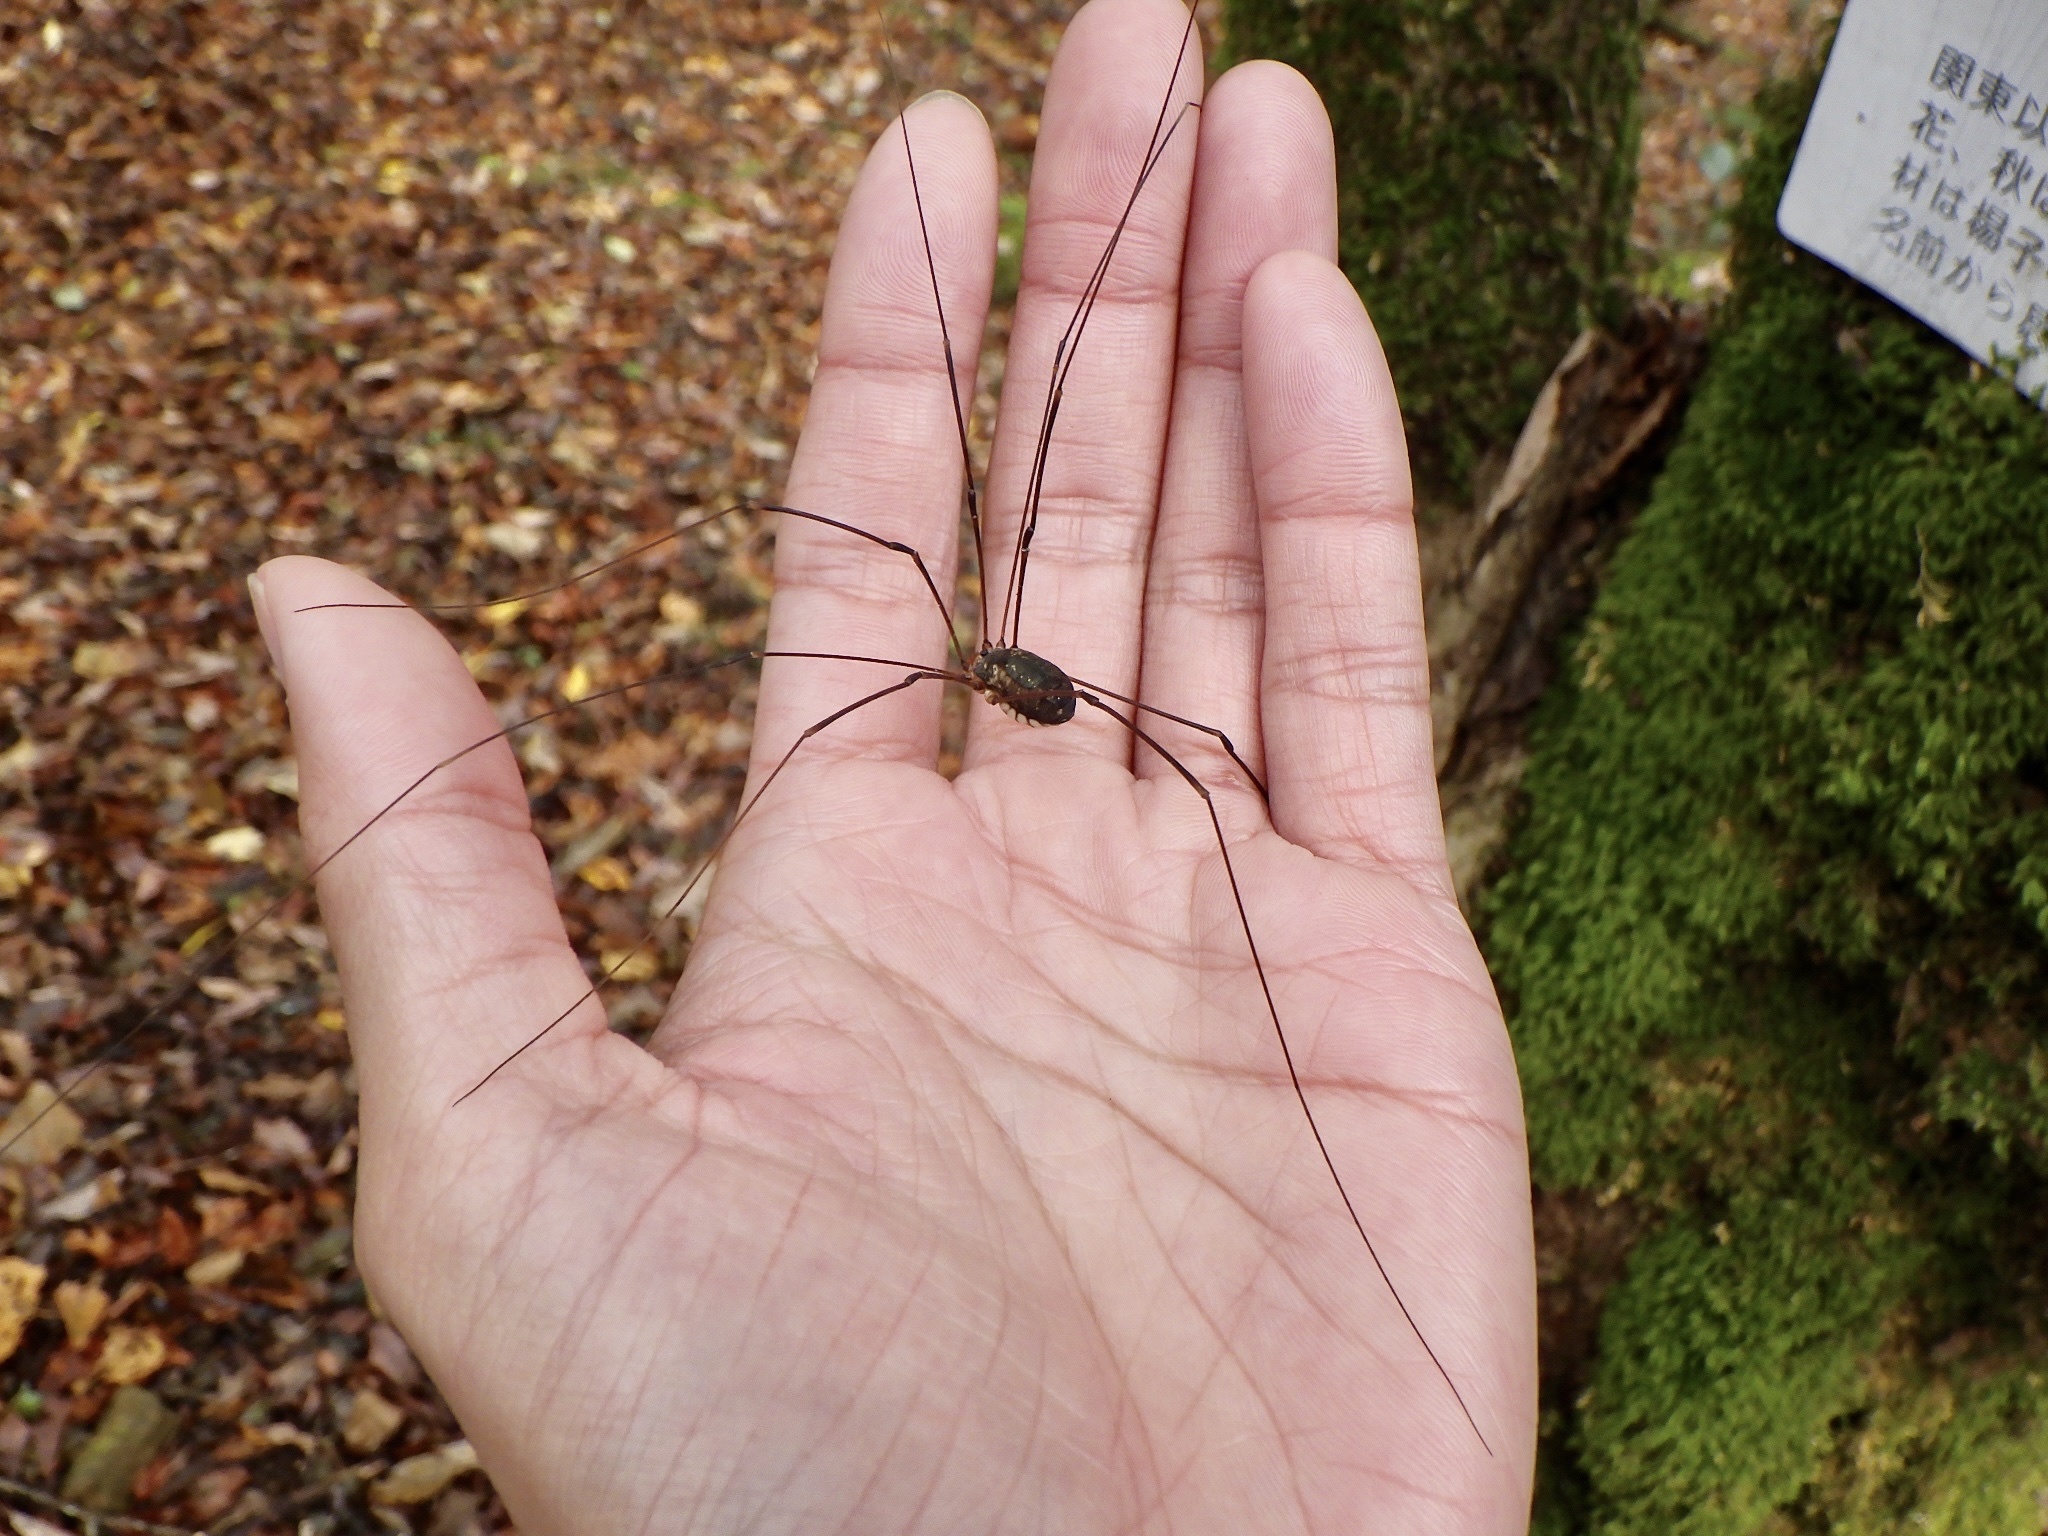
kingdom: Animalia
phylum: Arthropoda
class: Arachnida
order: Opiliones
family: Sclerosomatidae
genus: Nelima
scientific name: Nelima genufusca
